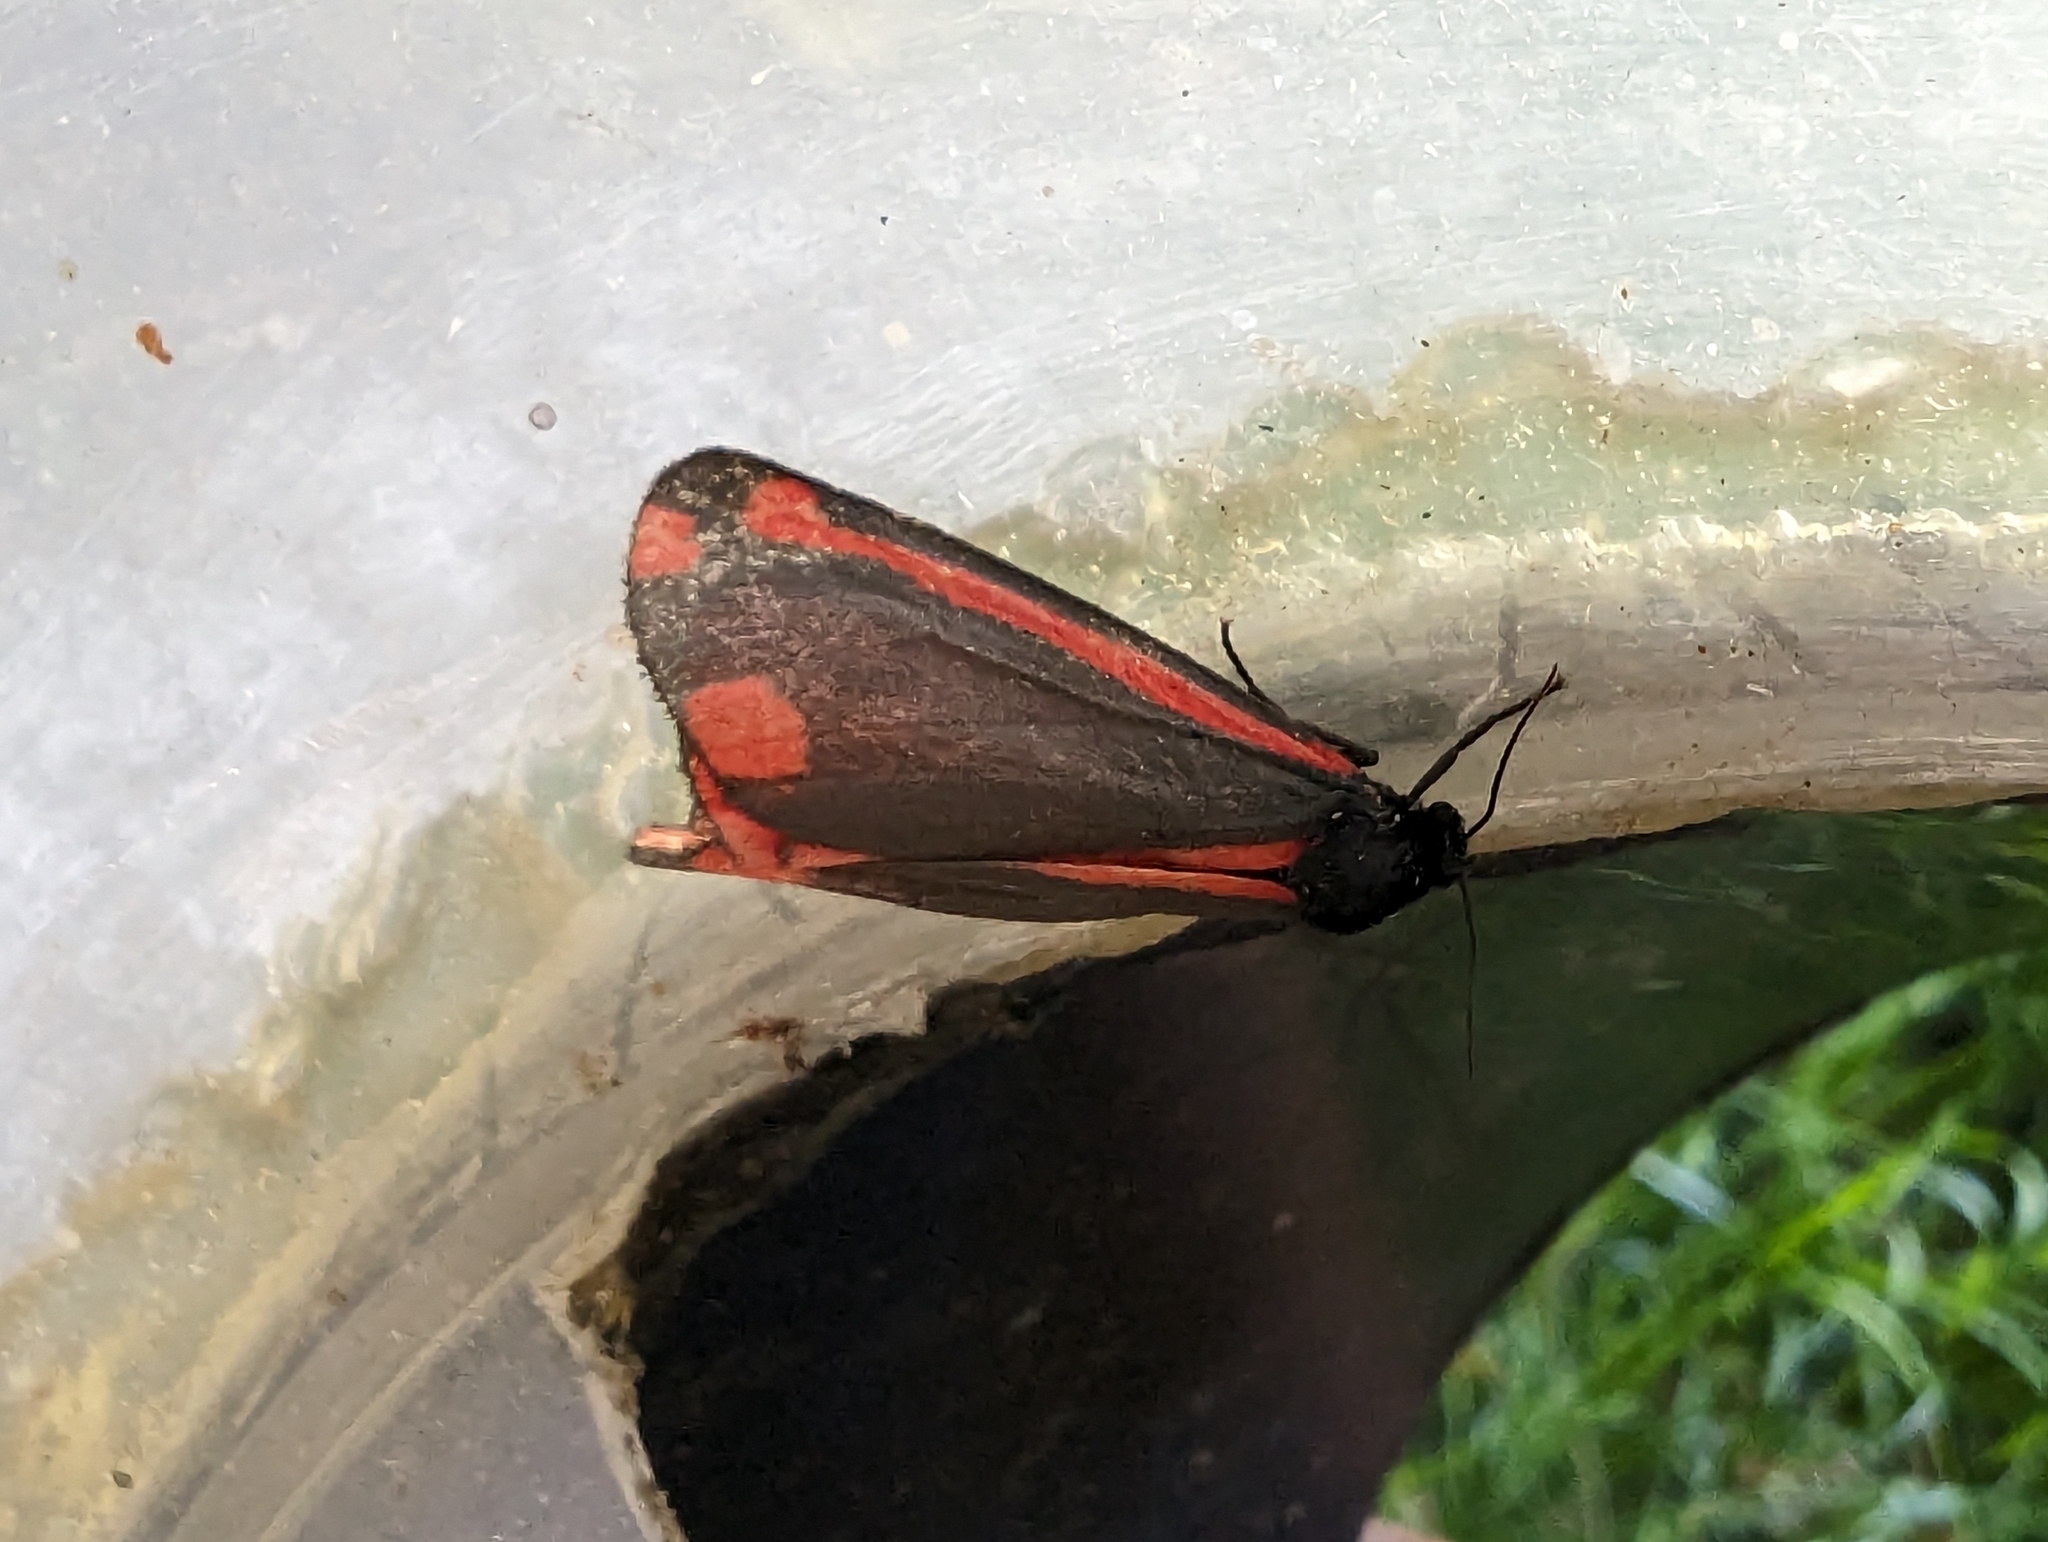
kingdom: Animalia
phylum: Arthropoda
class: Insecta
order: Lepidoptera
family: Erebidae
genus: Tyria
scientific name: Tyria jacobaeae
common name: Cinnabar
